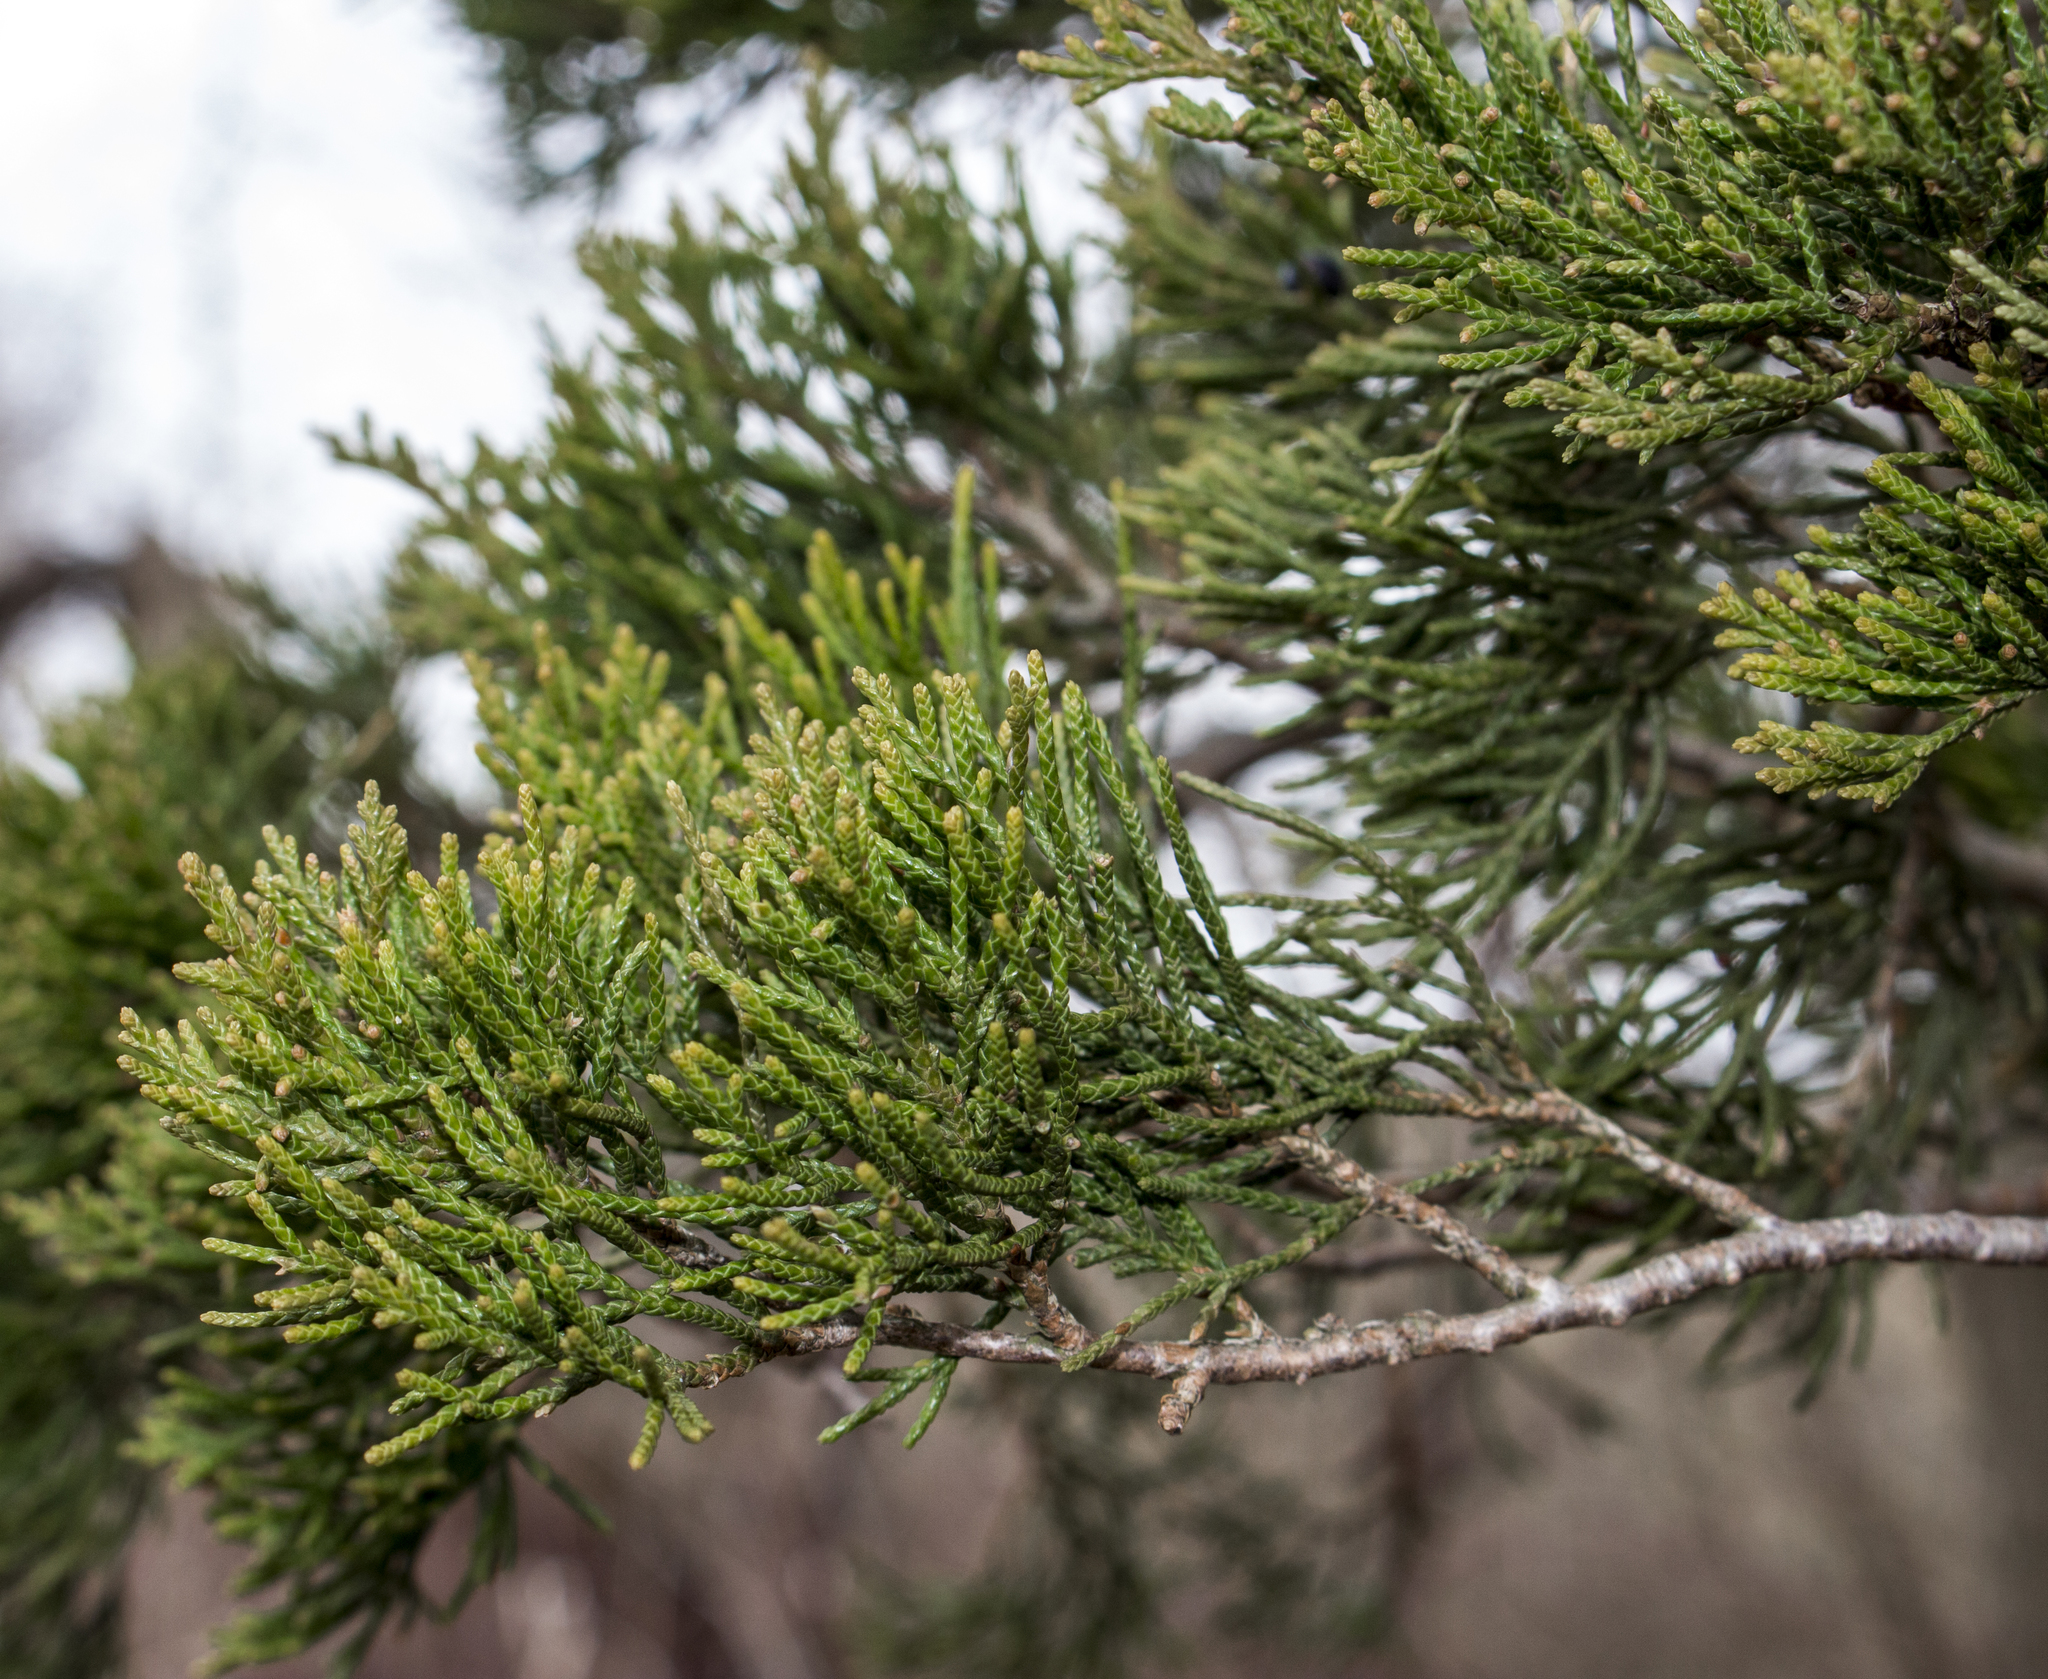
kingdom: Plantae
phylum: Tracheophyta
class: Pinopsida
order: Pinales
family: Cupressaceae
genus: Juniperus
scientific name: Juniperus virginiana
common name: Red juniper
